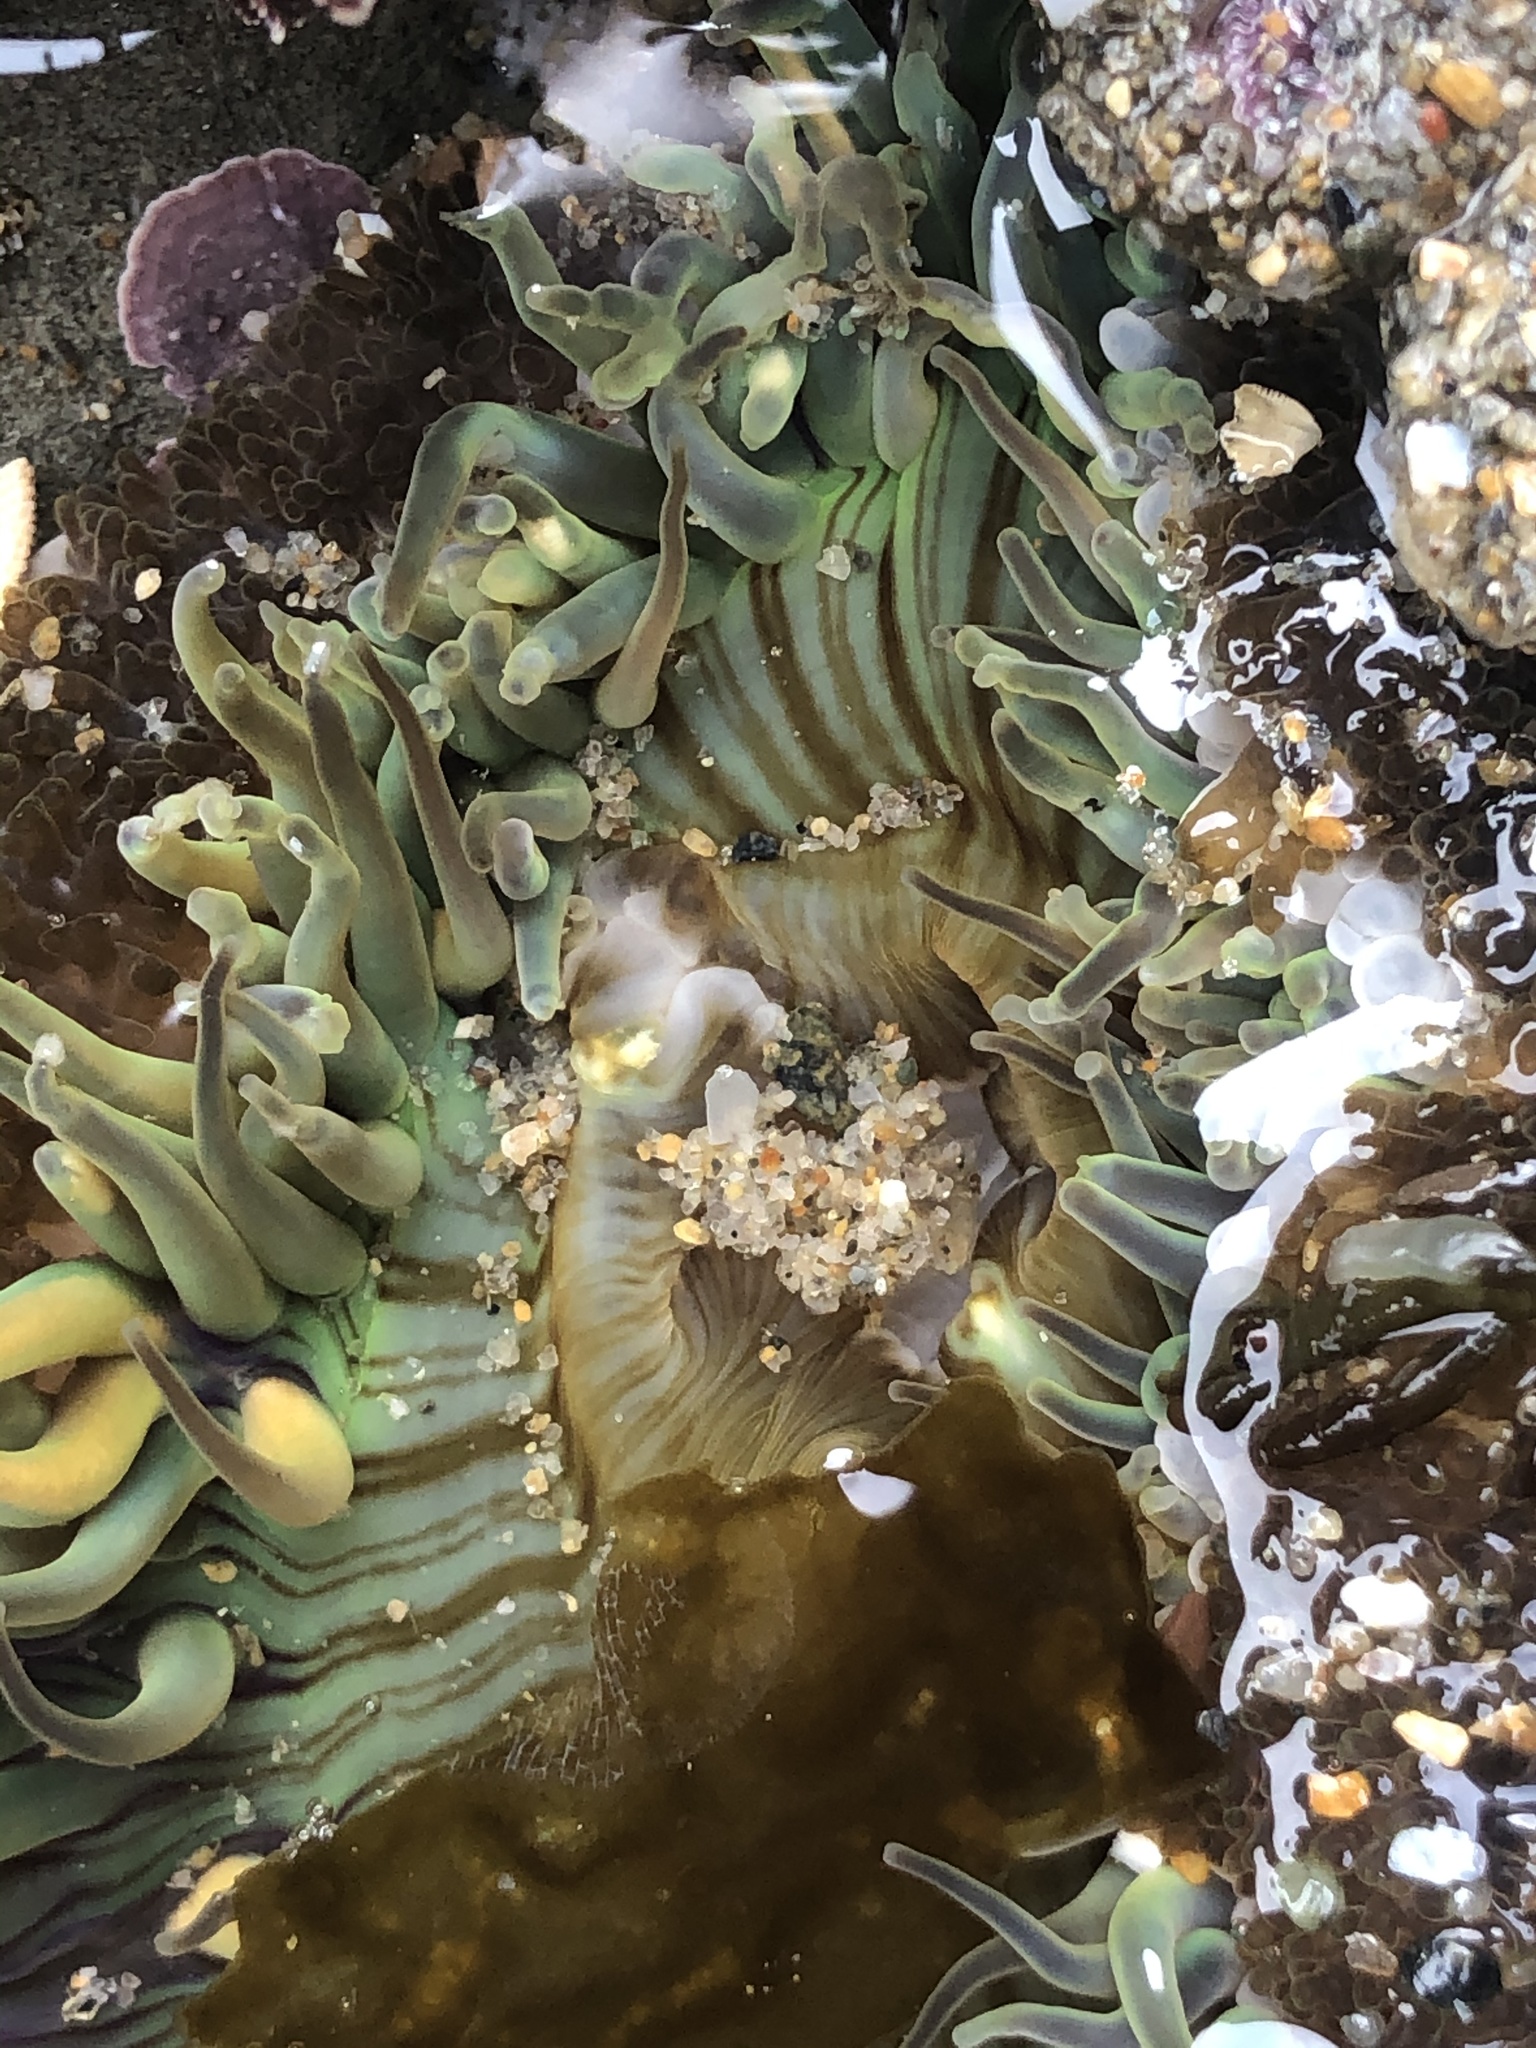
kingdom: Animalia
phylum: Cnidaria
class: Anthozoa
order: Actiniaria
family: Actiniidae
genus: Anthopleura
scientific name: Anthopleura sola
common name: Sun anemone
